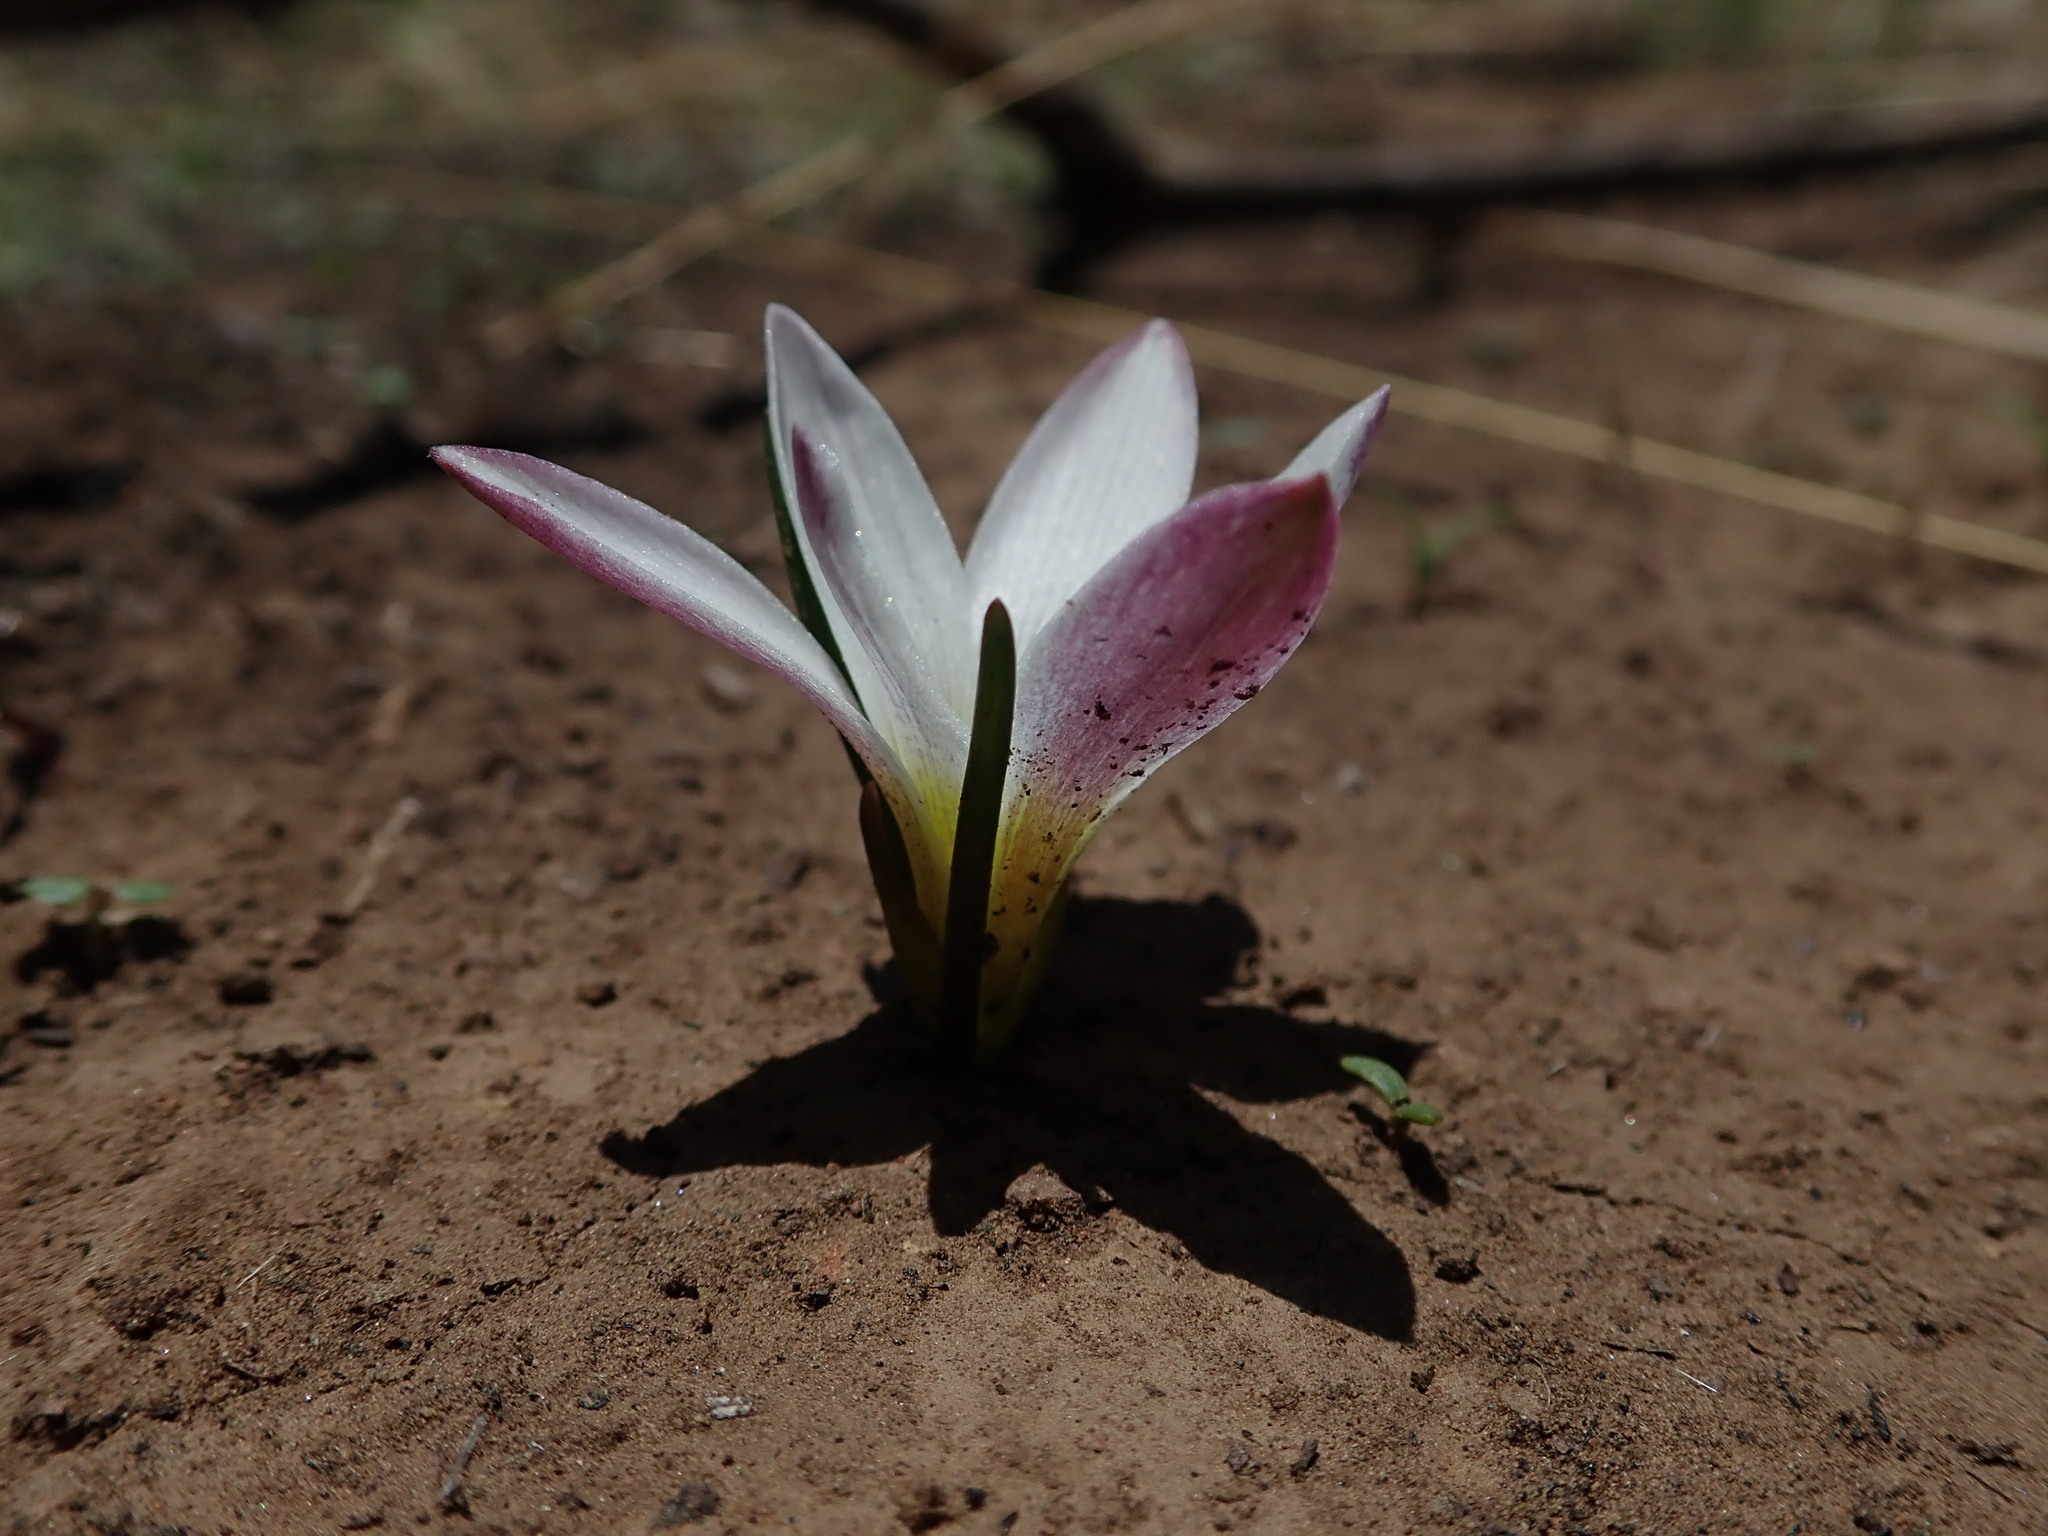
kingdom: Plantae
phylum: Tracheophyta
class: Liliopsida
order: Asparagales
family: Amaryllidaceae
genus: Zephyranthes
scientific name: Zephyranthes andina
